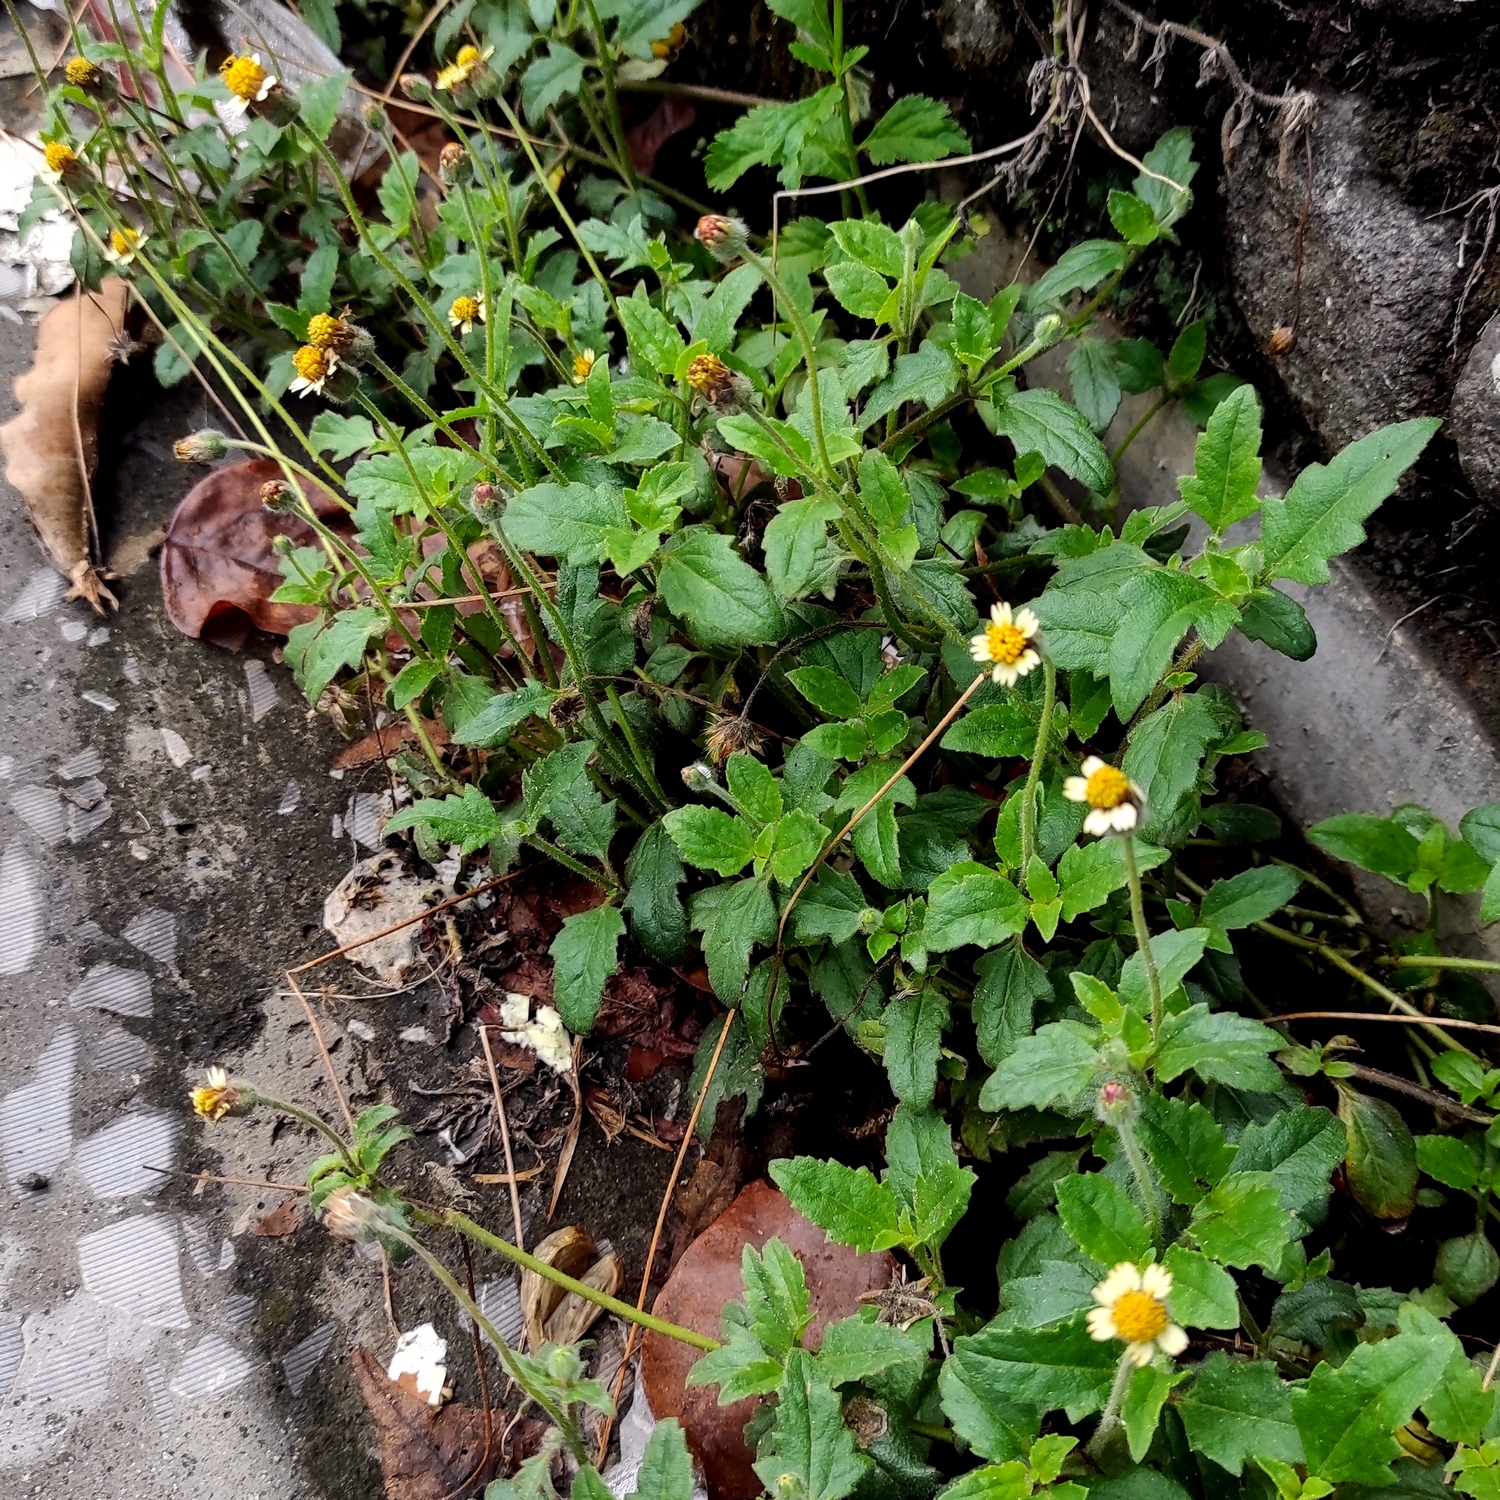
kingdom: Plantae
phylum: Tracheophyta
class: Magnoliopsida
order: Asterales
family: Asteraceae
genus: Tridax
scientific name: Tridax procumbens
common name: Coatbuttons
